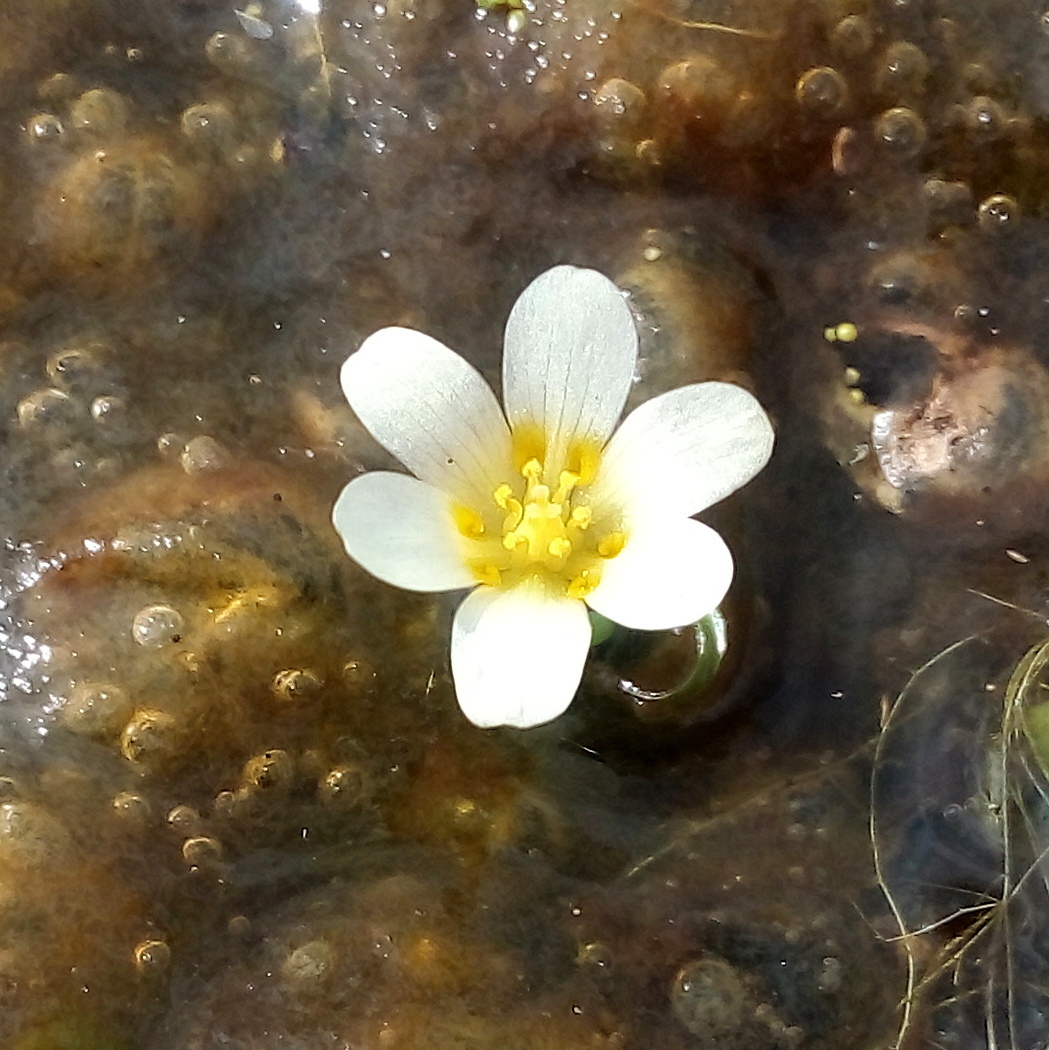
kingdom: Plantae
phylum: Tracheophyta
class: Magnoliopsida
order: Nymphaeales
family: Cabombaceae
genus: Cabomba
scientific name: Cabomba caroliniana
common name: Fanwort
